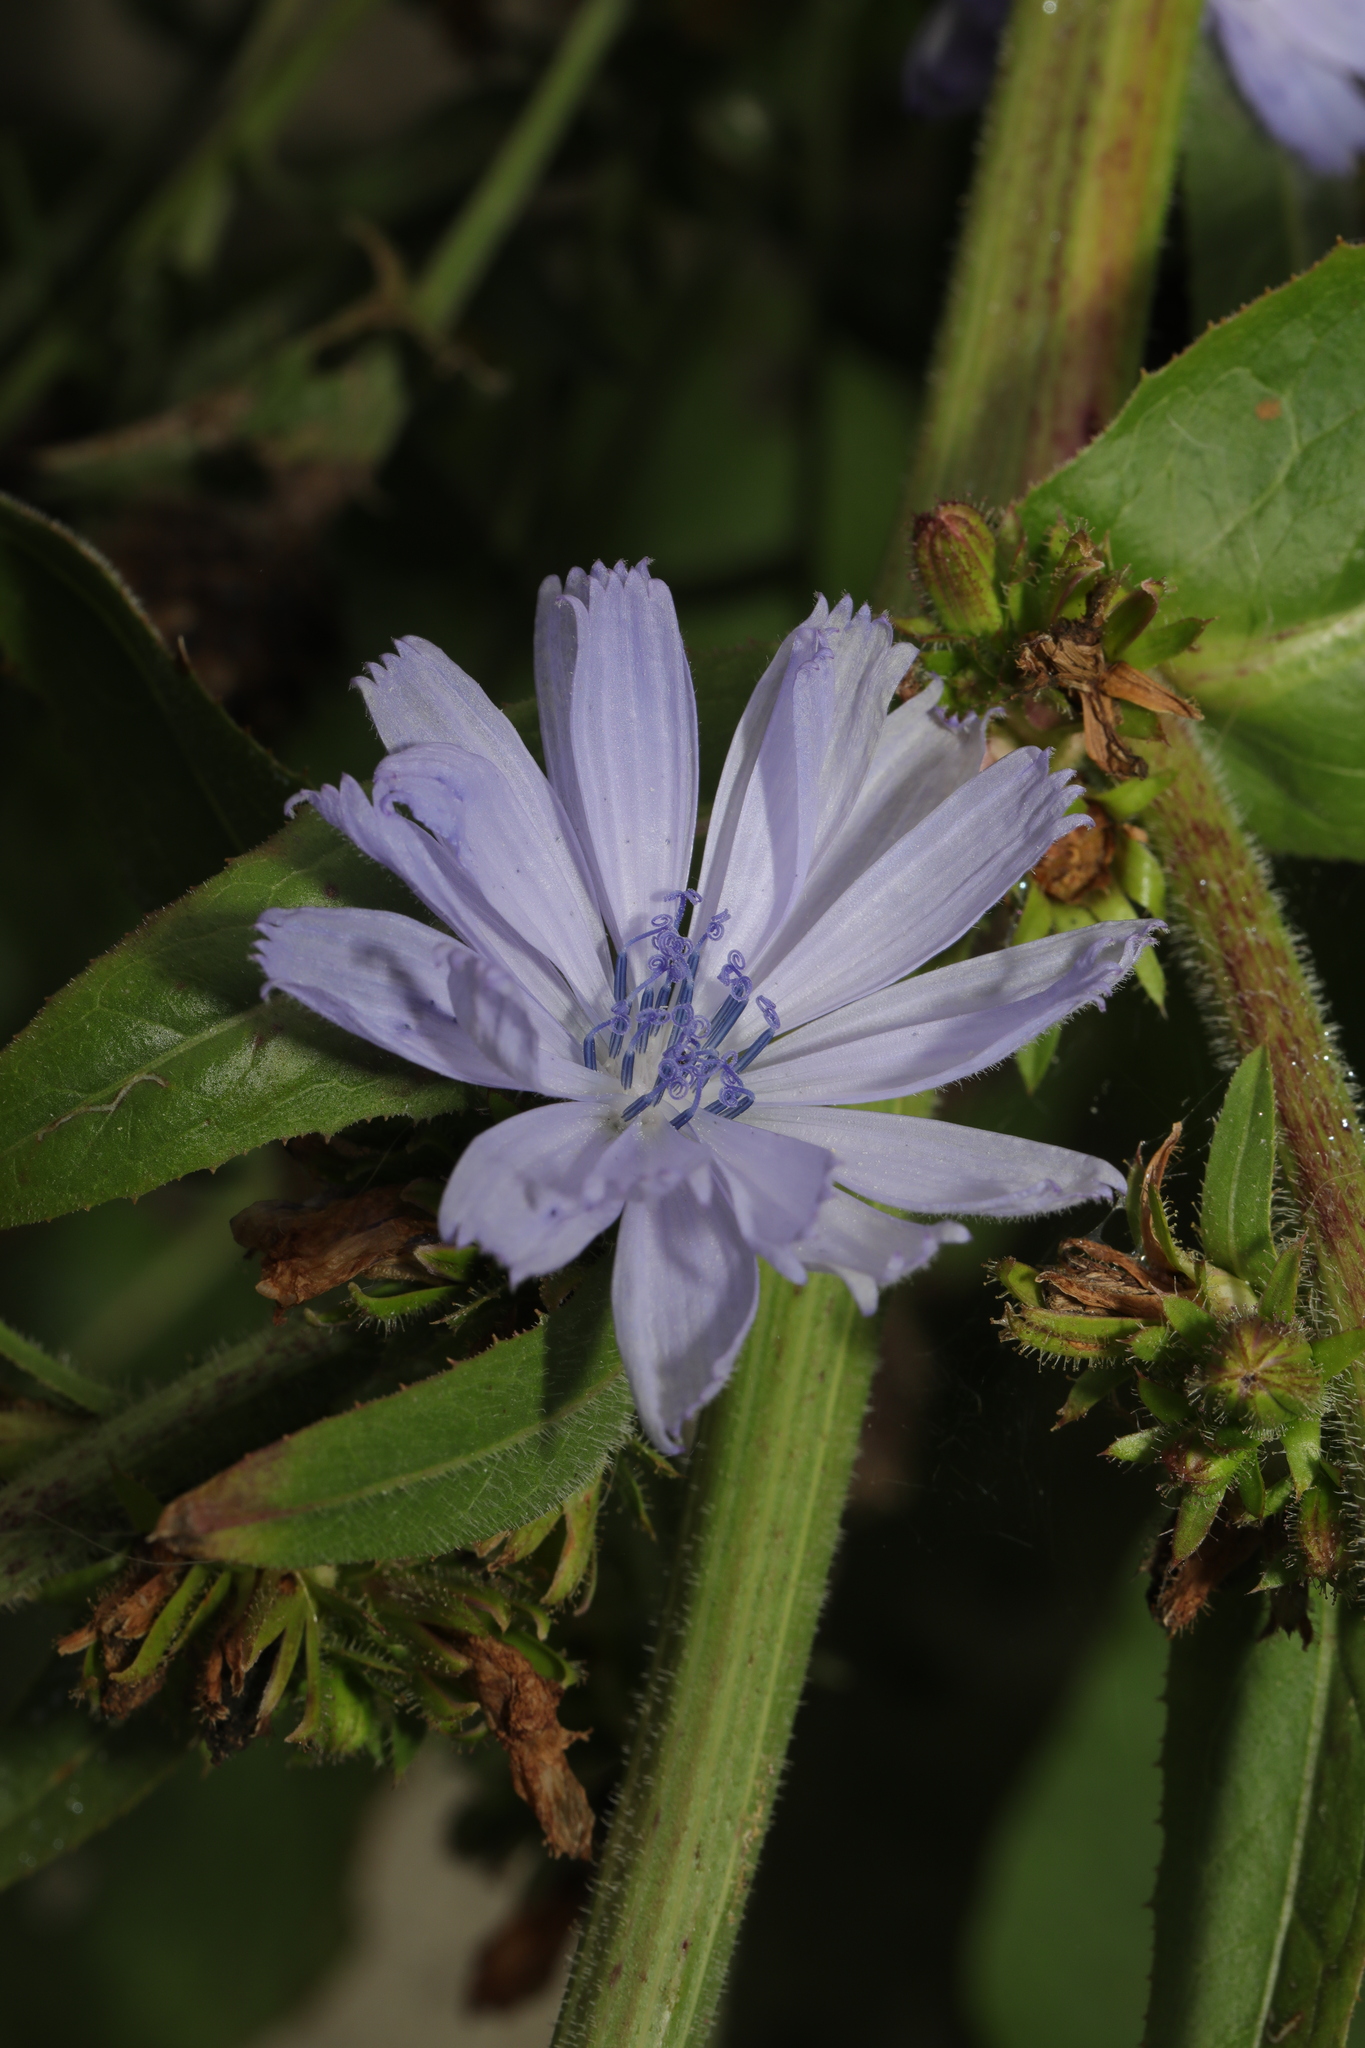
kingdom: Plantae
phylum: Tracheophyta
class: Magnoliopsida
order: Asterales
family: Asteraceae
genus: Cichorium
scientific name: Cichorium intybus
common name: Chicory
